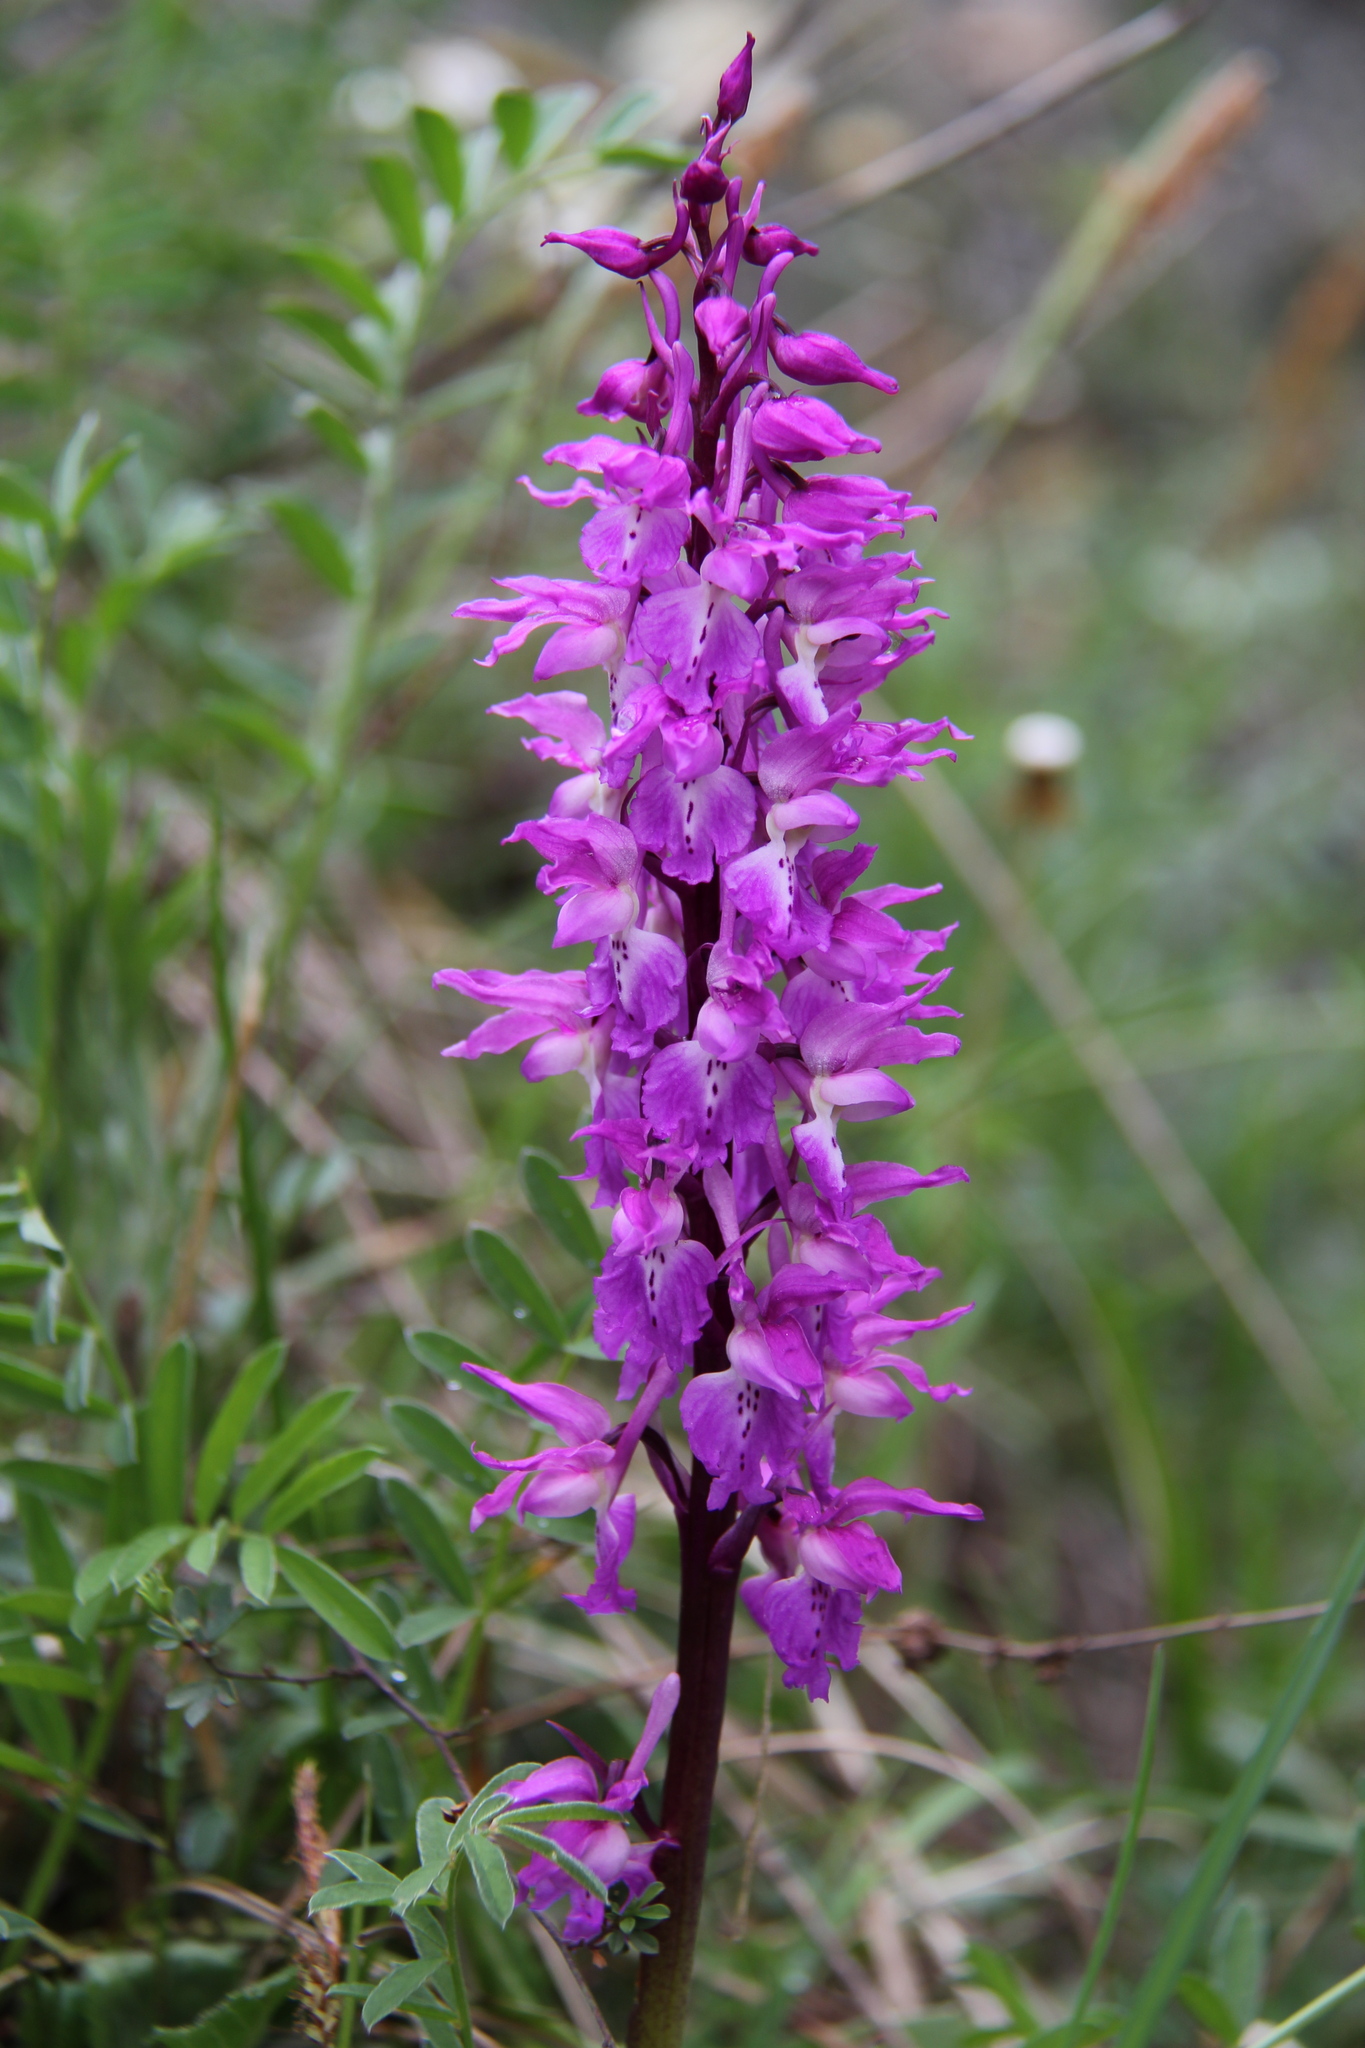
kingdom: Plantae
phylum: Tracheophyta
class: Liliopsida
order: Asparagales
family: Orchidaceae
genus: Orchis
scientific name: Orchis mascula
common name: Early-purple orchid
